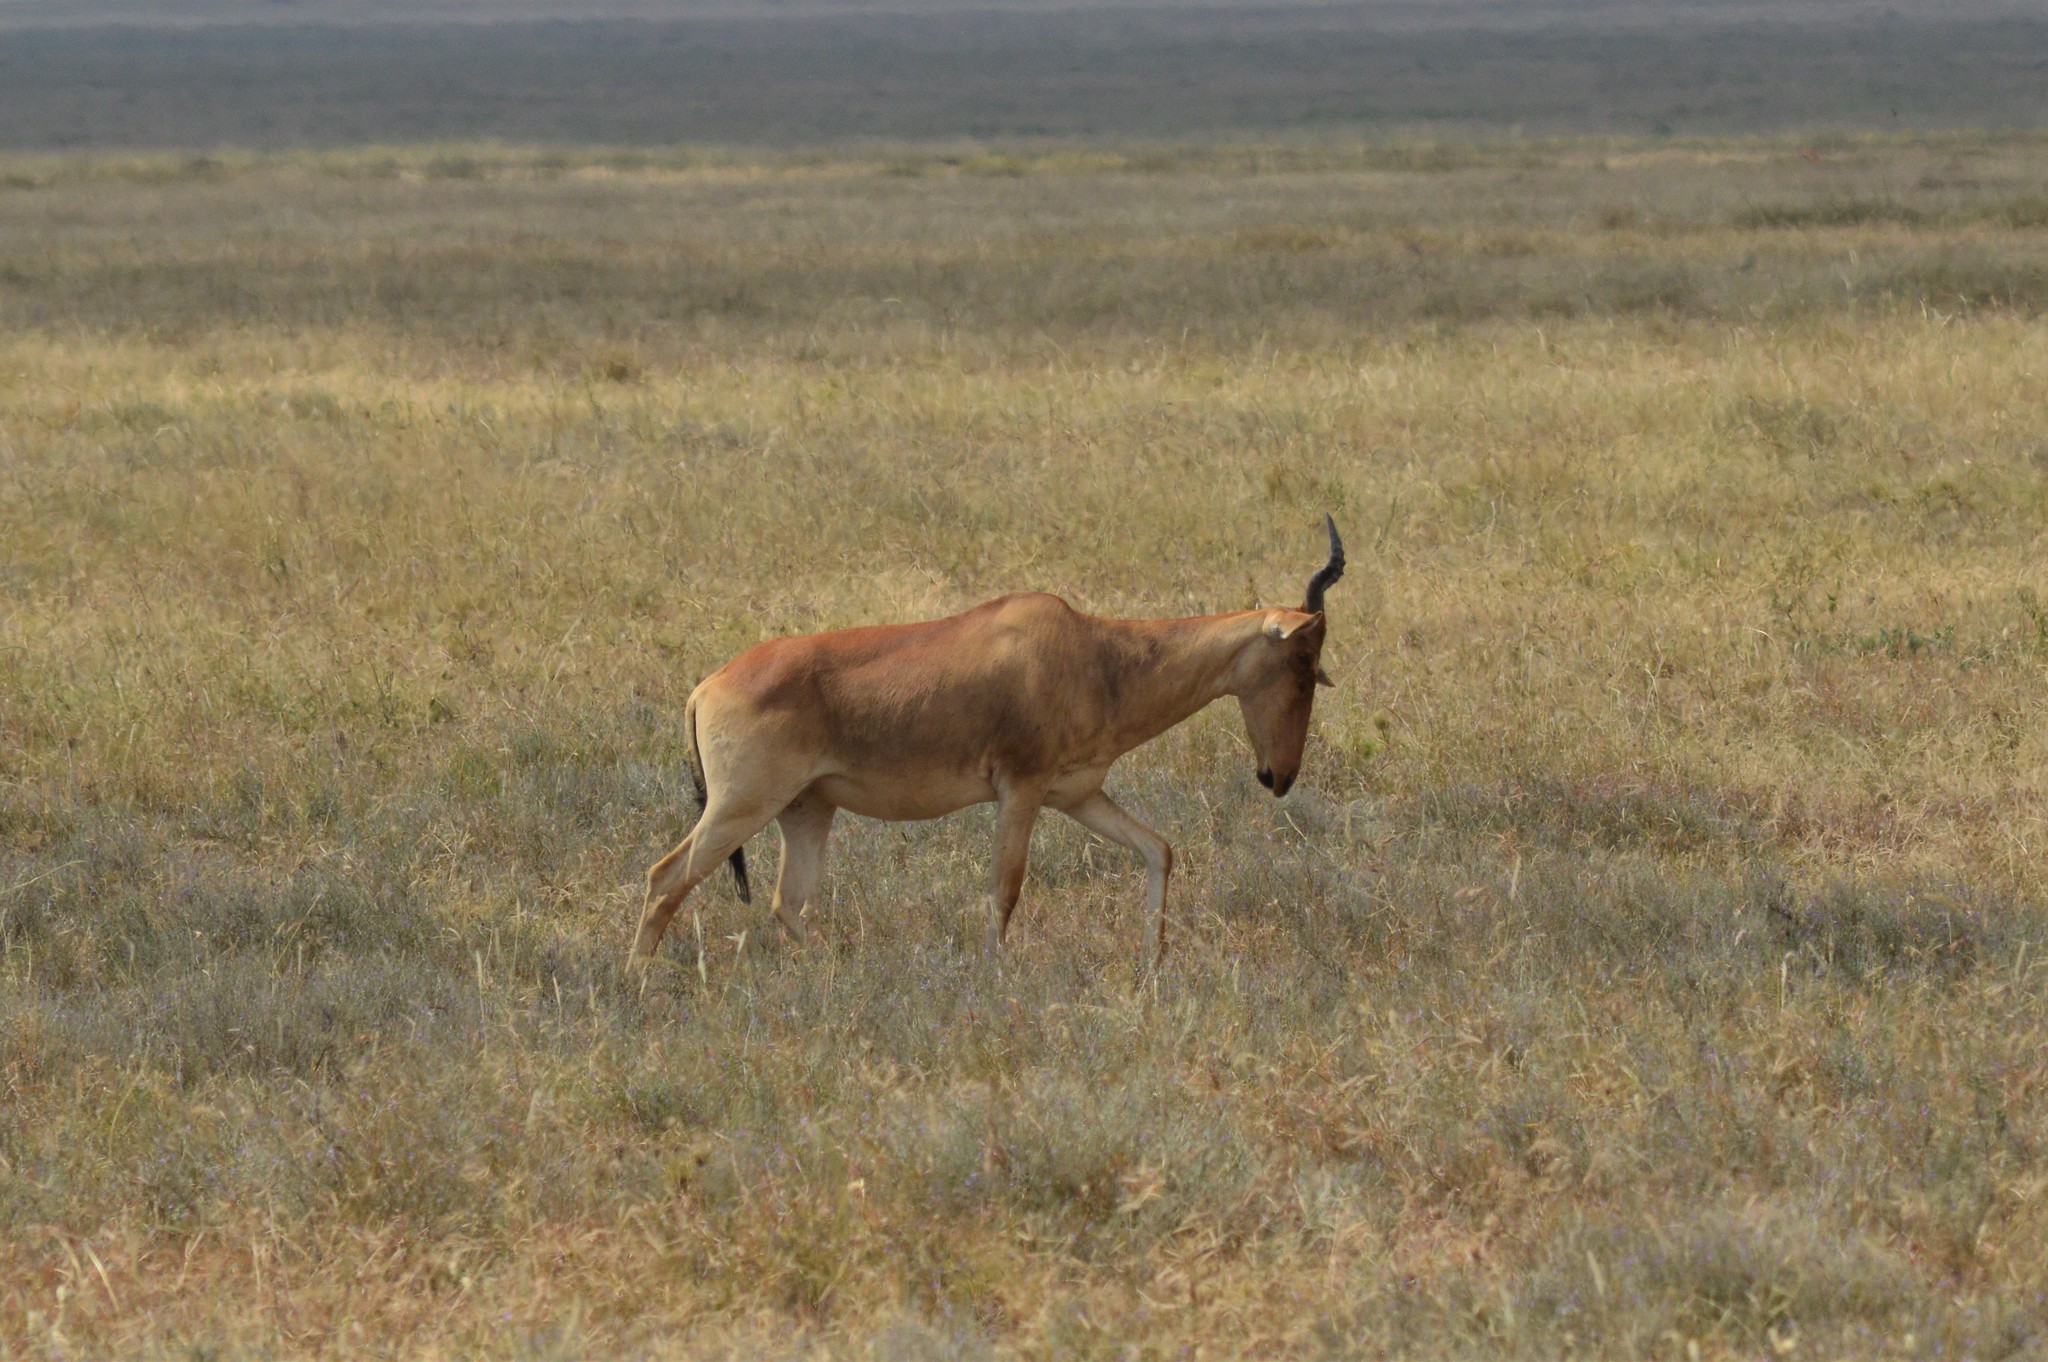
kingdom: Animalia
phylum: Chordata
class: Mammalia
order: Artiodactyla
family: Bovidae
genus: Alcelaphus
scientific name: Alcelaphus buselaphus
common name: Hartebeest
